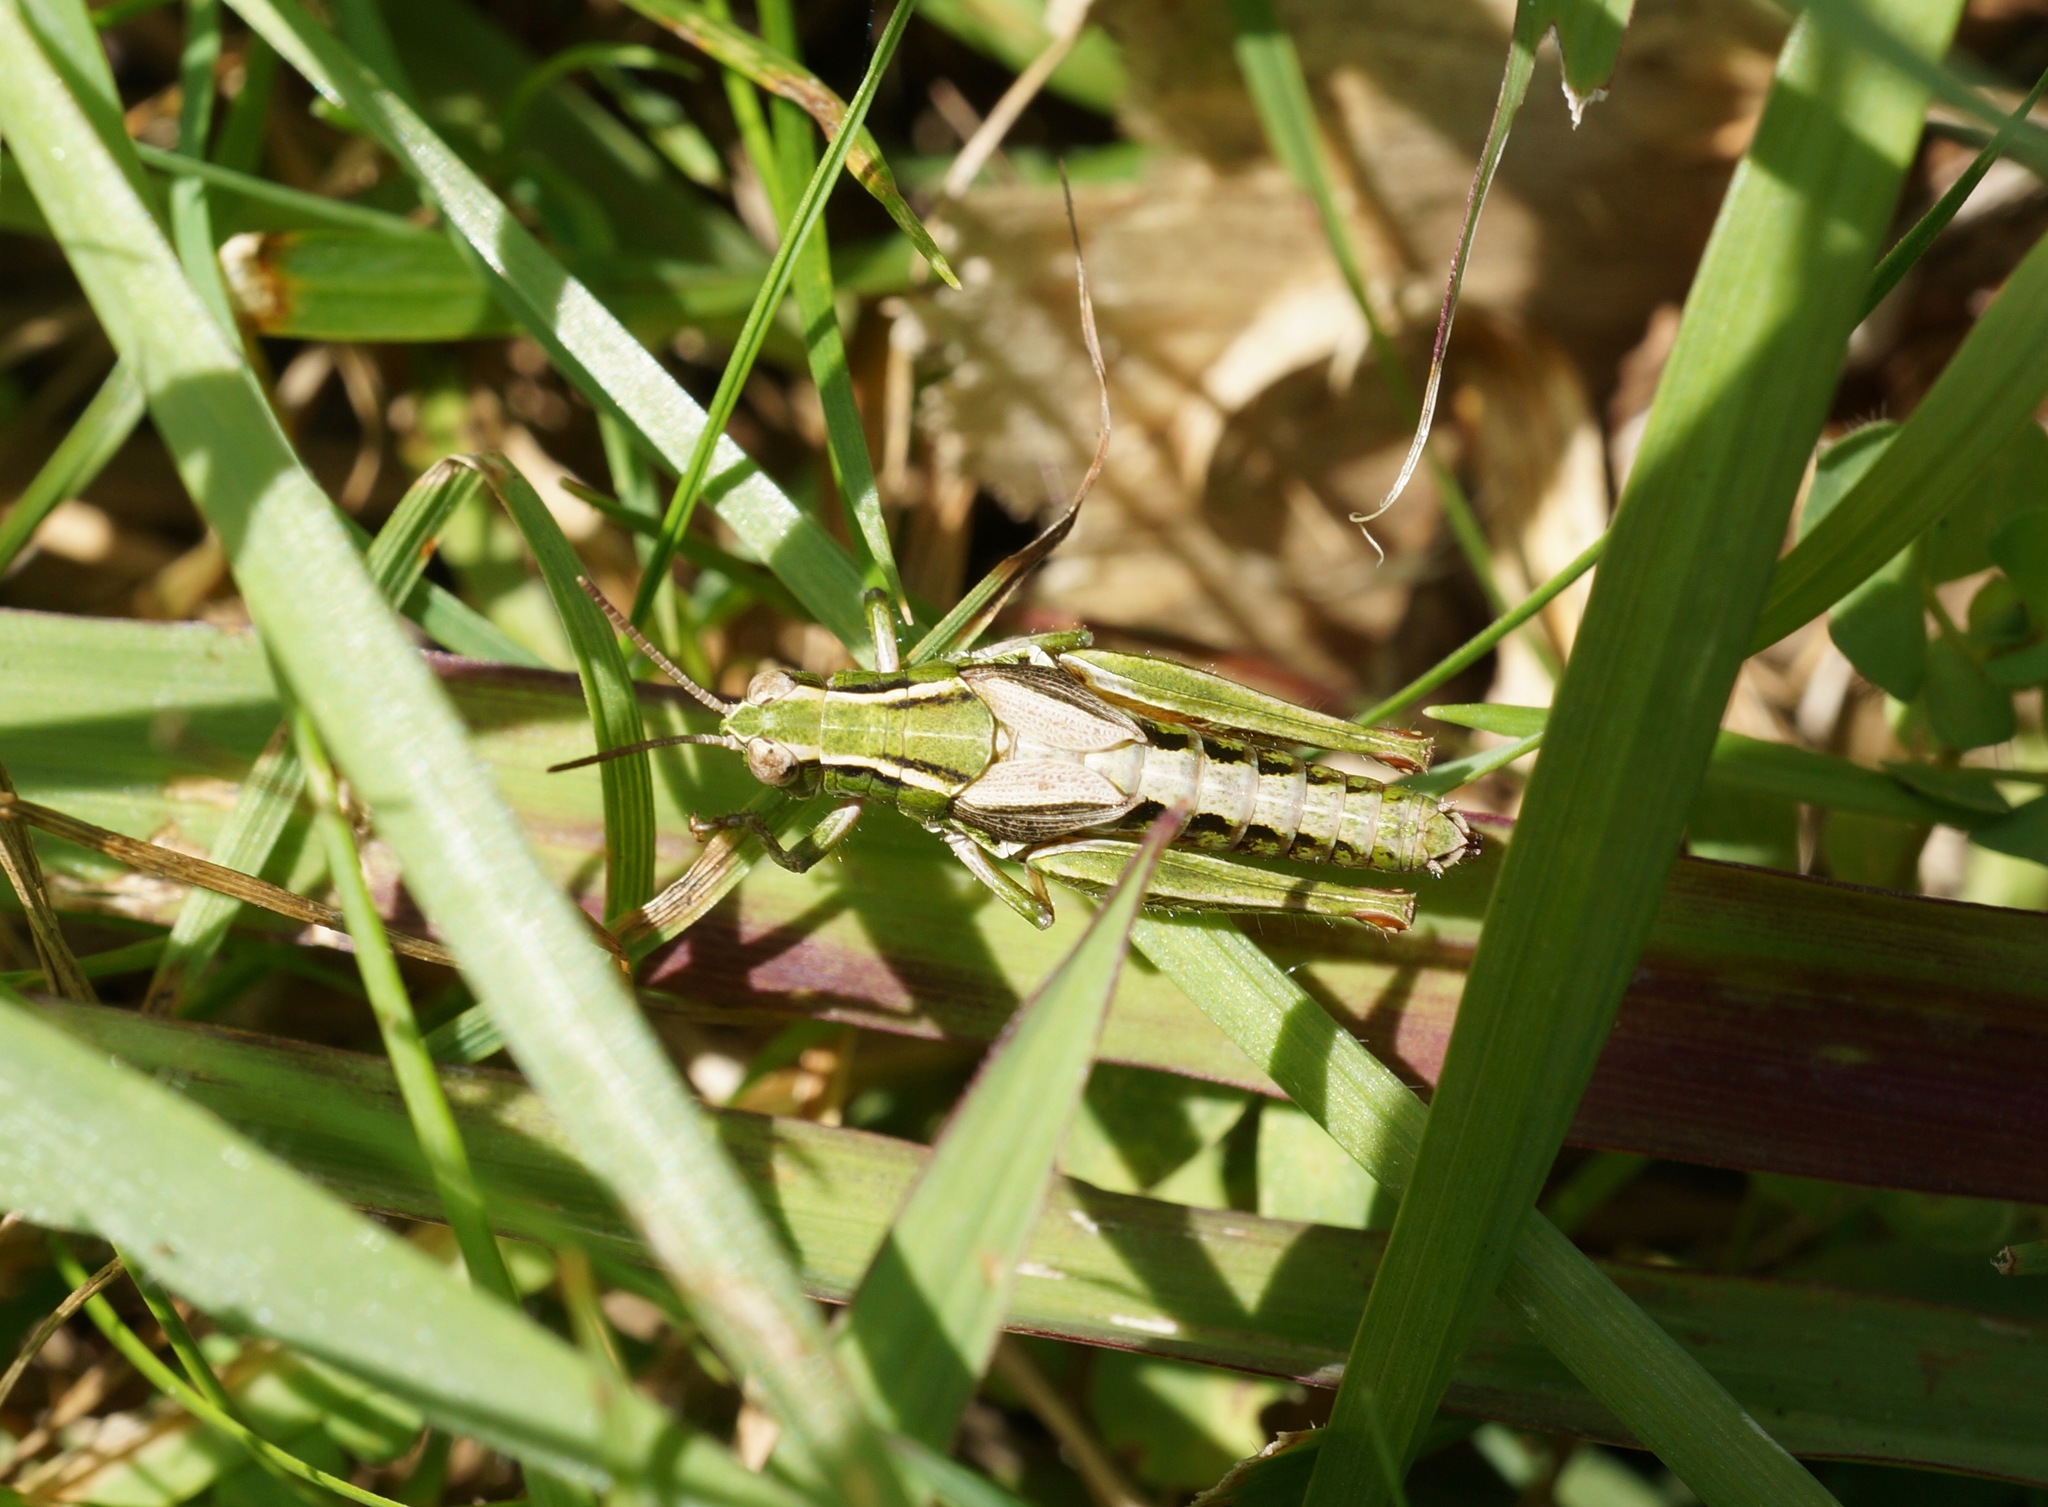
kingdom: Animalia
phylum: Arthropoda
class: Insecta
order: Orthoptera
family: Acrididae
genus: Phaulacridium
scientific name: Phaulacridium marginale
